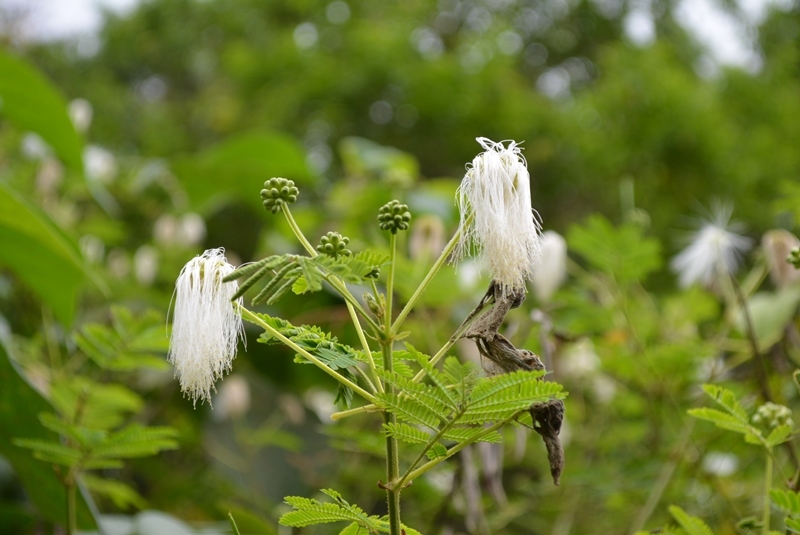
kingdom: Plantae
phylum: Tracheophyta
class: Magnoliopsida
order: Fabales
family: Fabaceae
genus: Mimosa
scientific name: Mimosa albida
